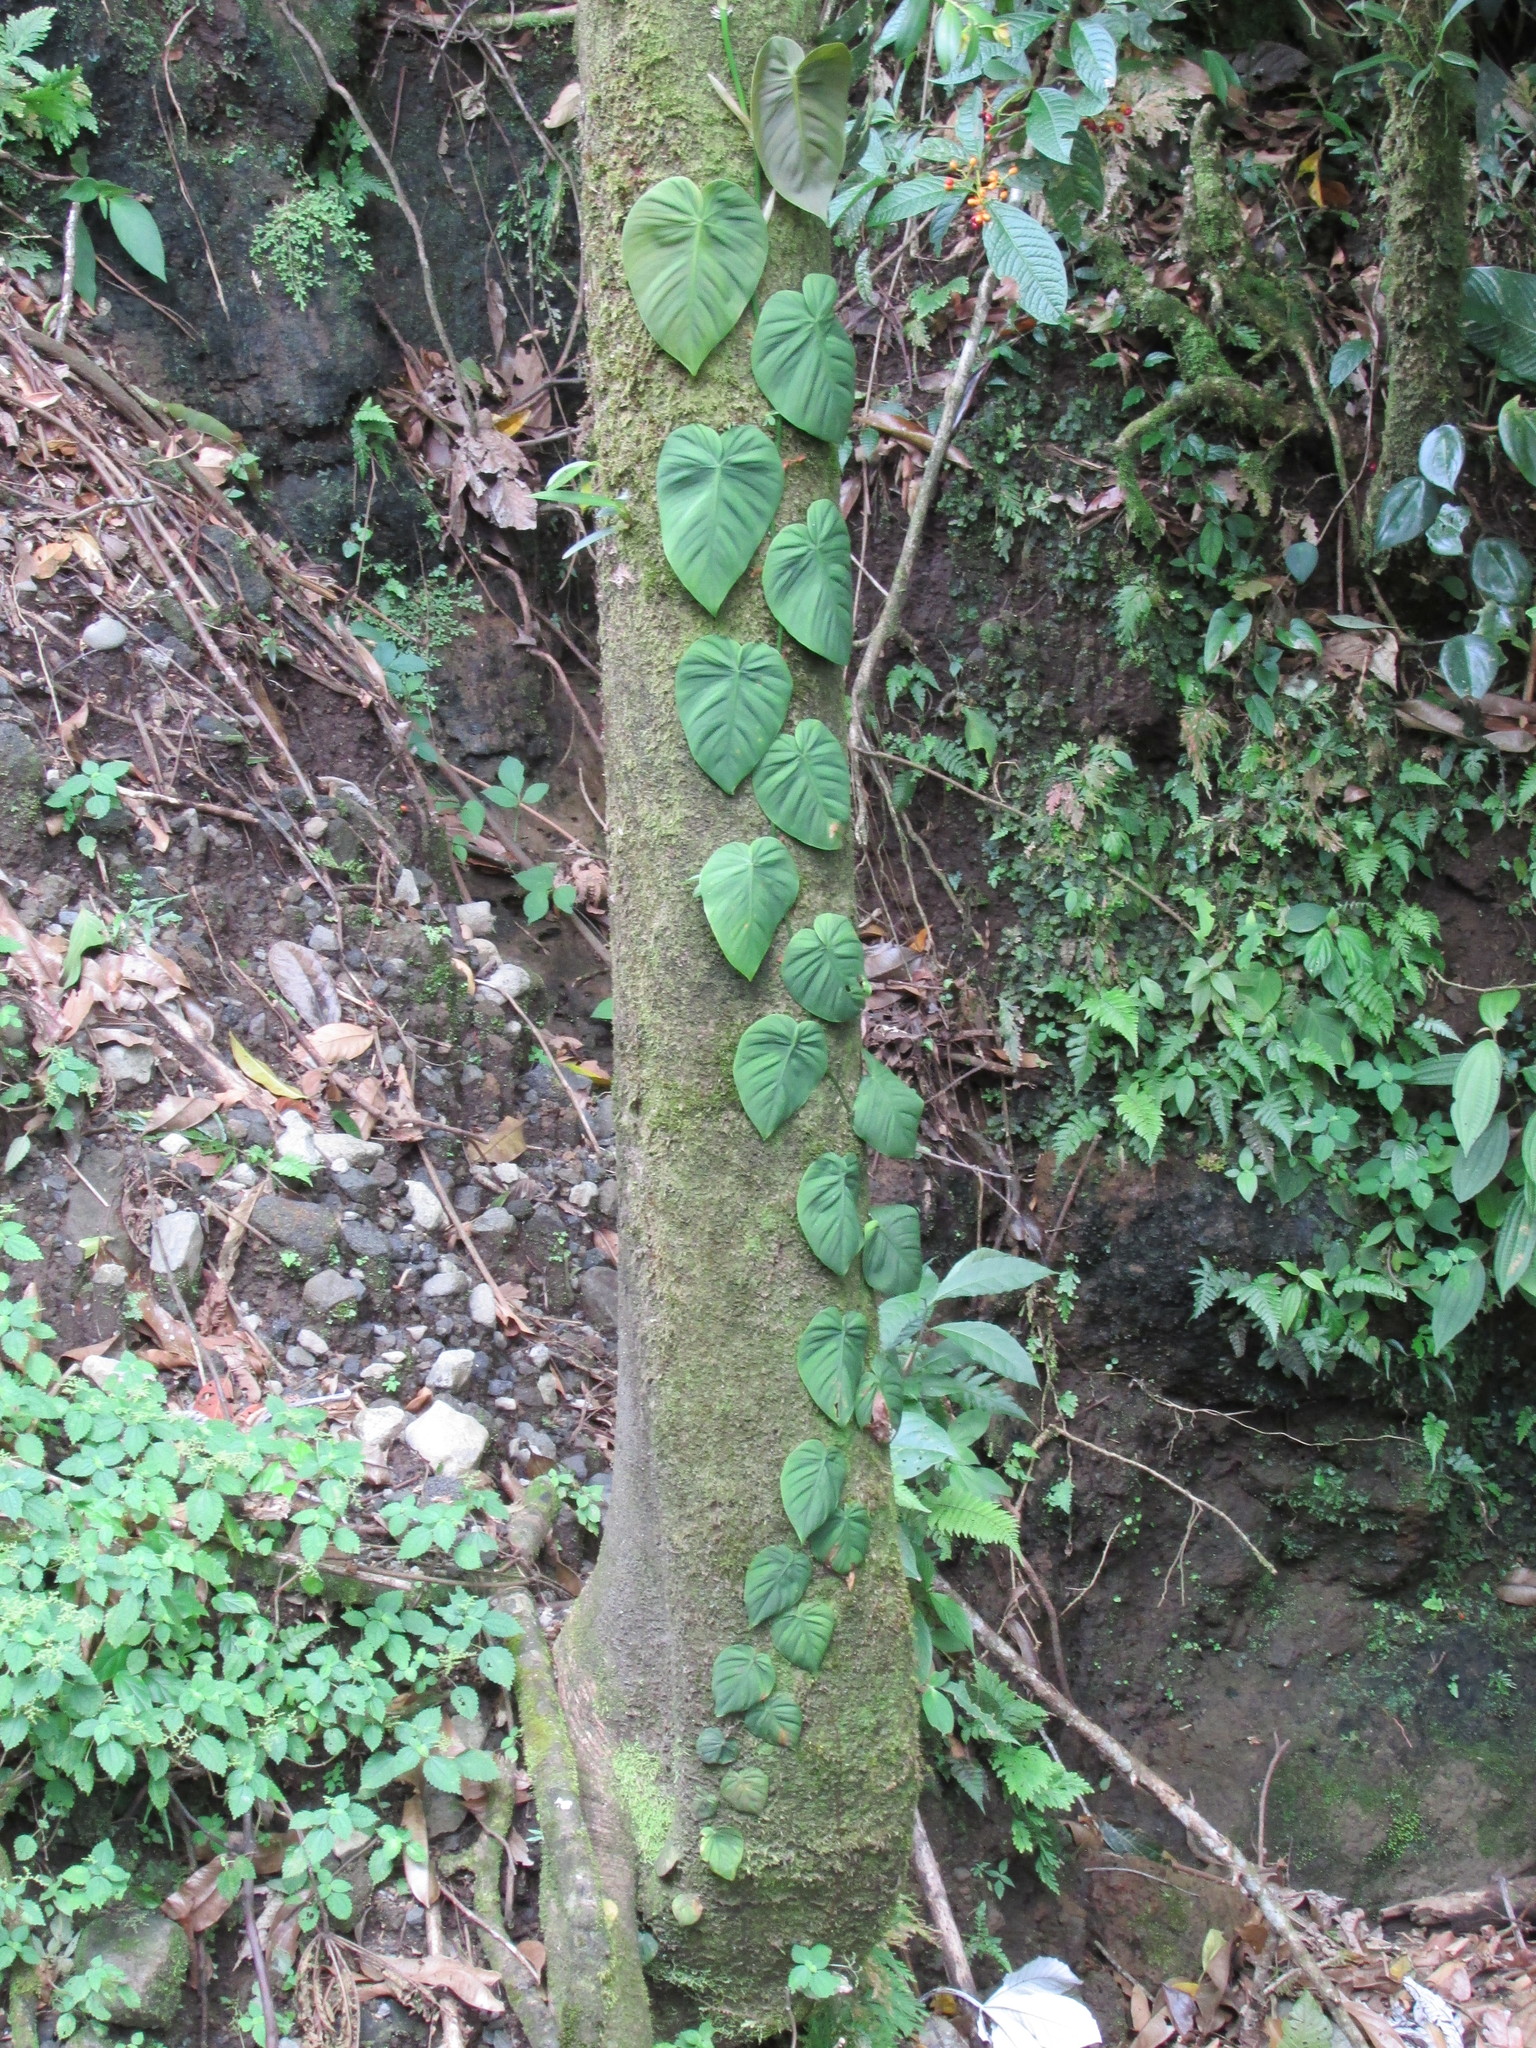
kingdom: Plantae
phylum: Tracheophyta
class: Liliopsida
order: Alismatales
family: Araceae
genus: Philodendron
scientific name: Philodendron hederaceum
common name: Vilevine
